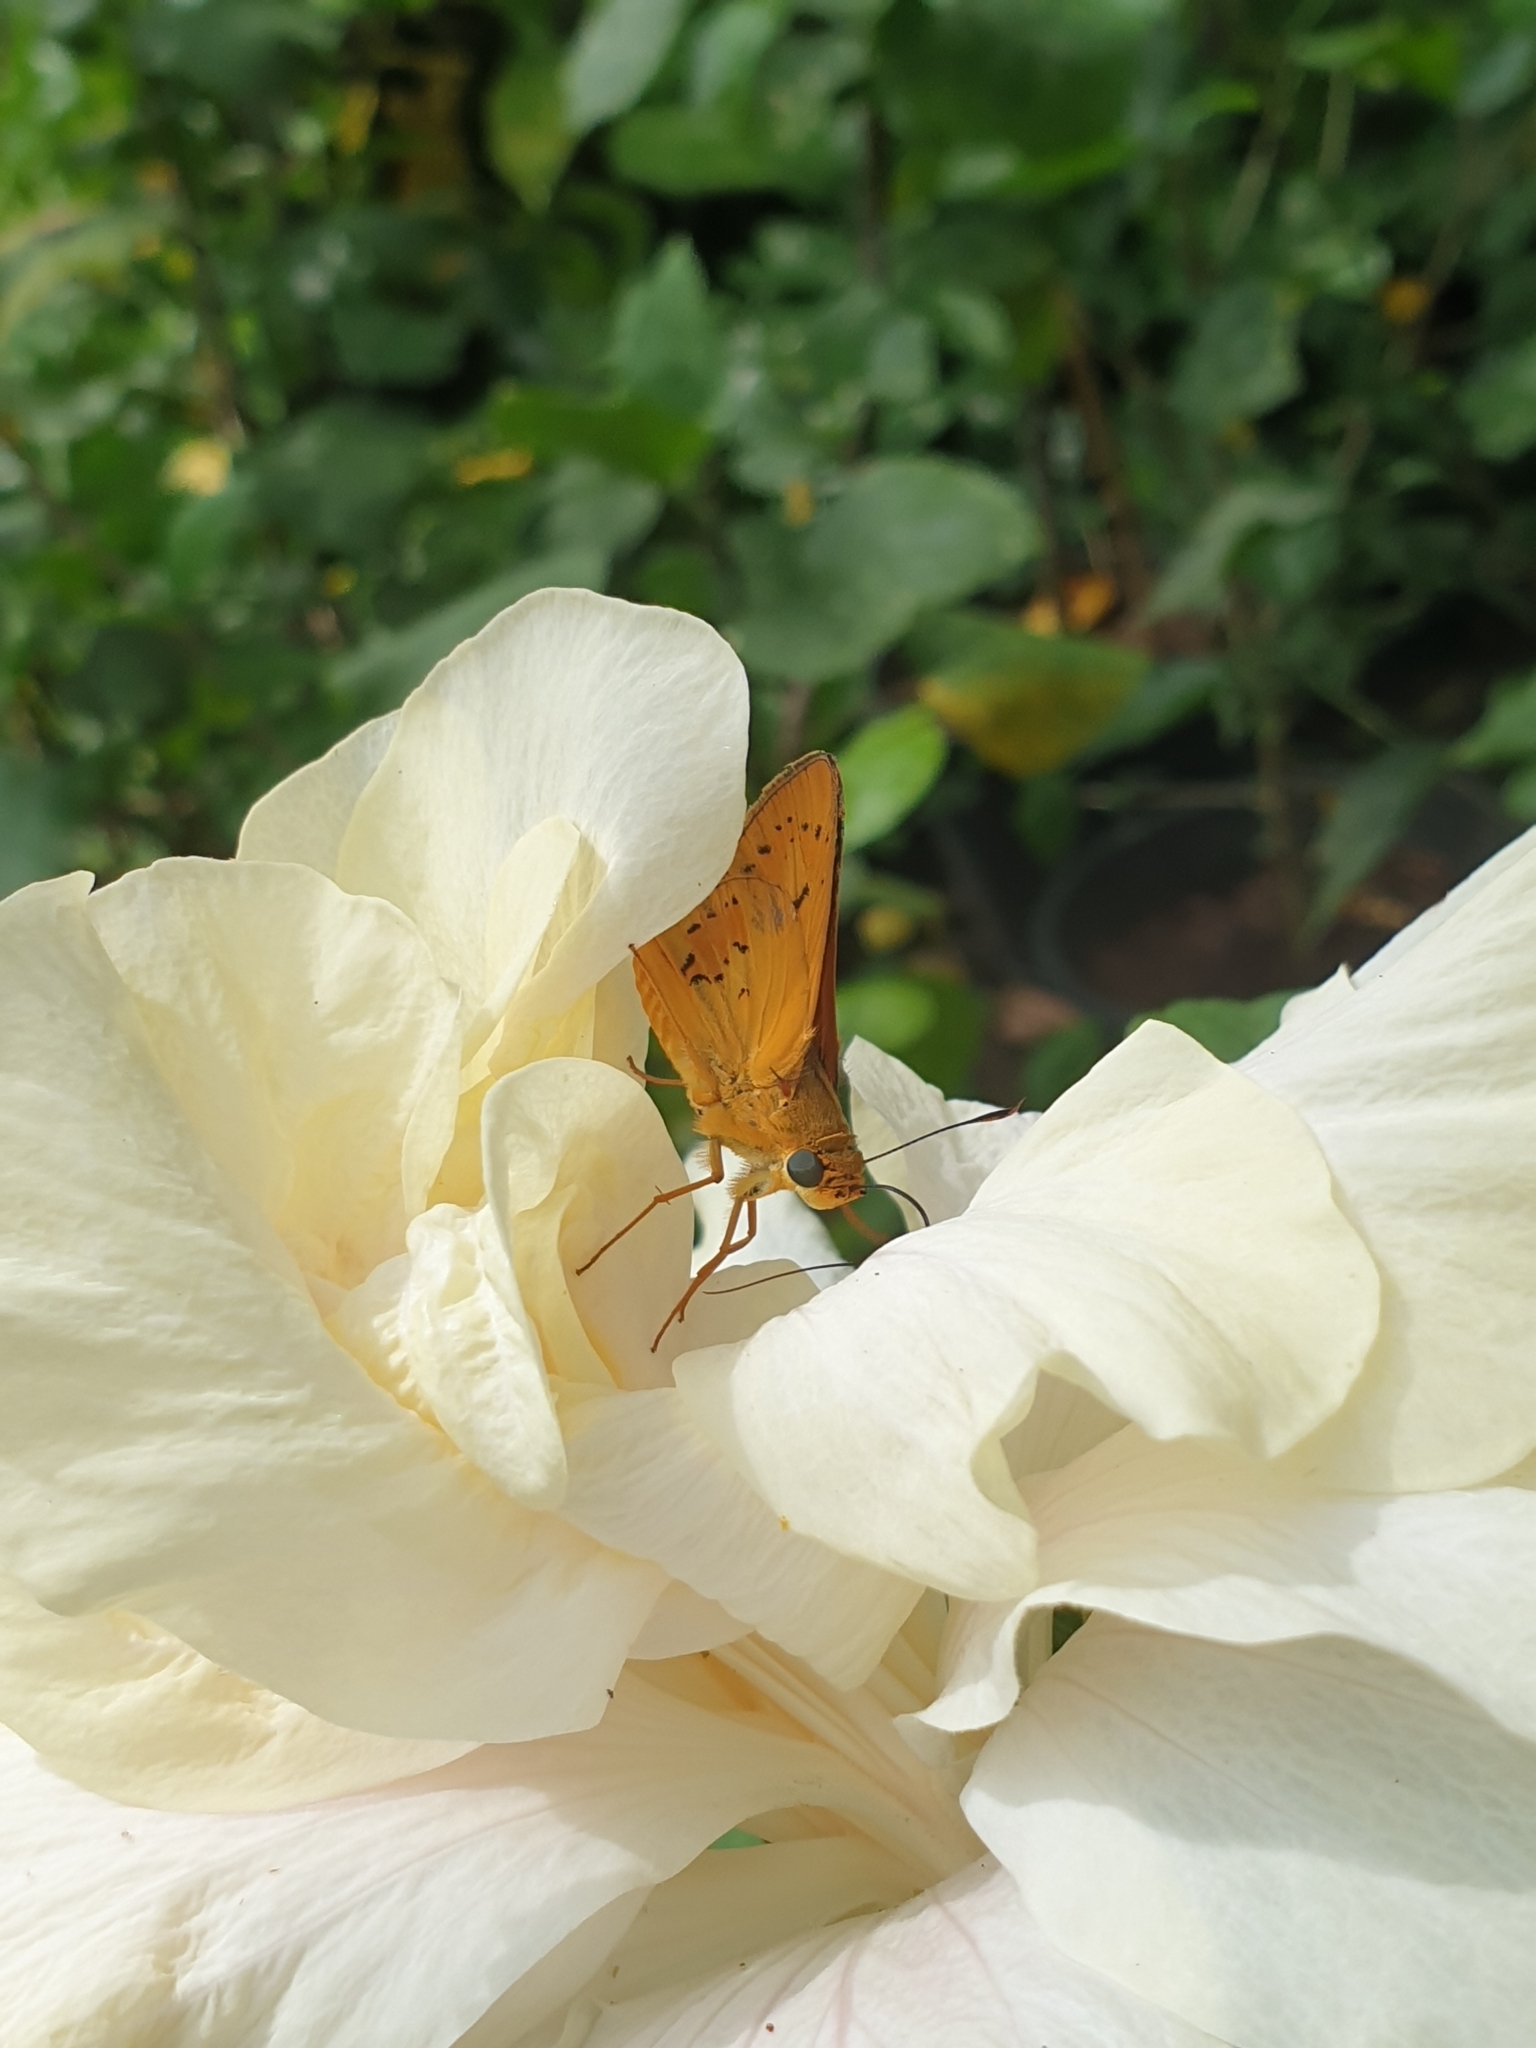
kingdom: Animalia
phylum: Arthropoda
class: Insecta
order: Lepidoptera
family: Hesperiidae
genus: Cephrenes
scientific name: Cephrenes trichopepla
